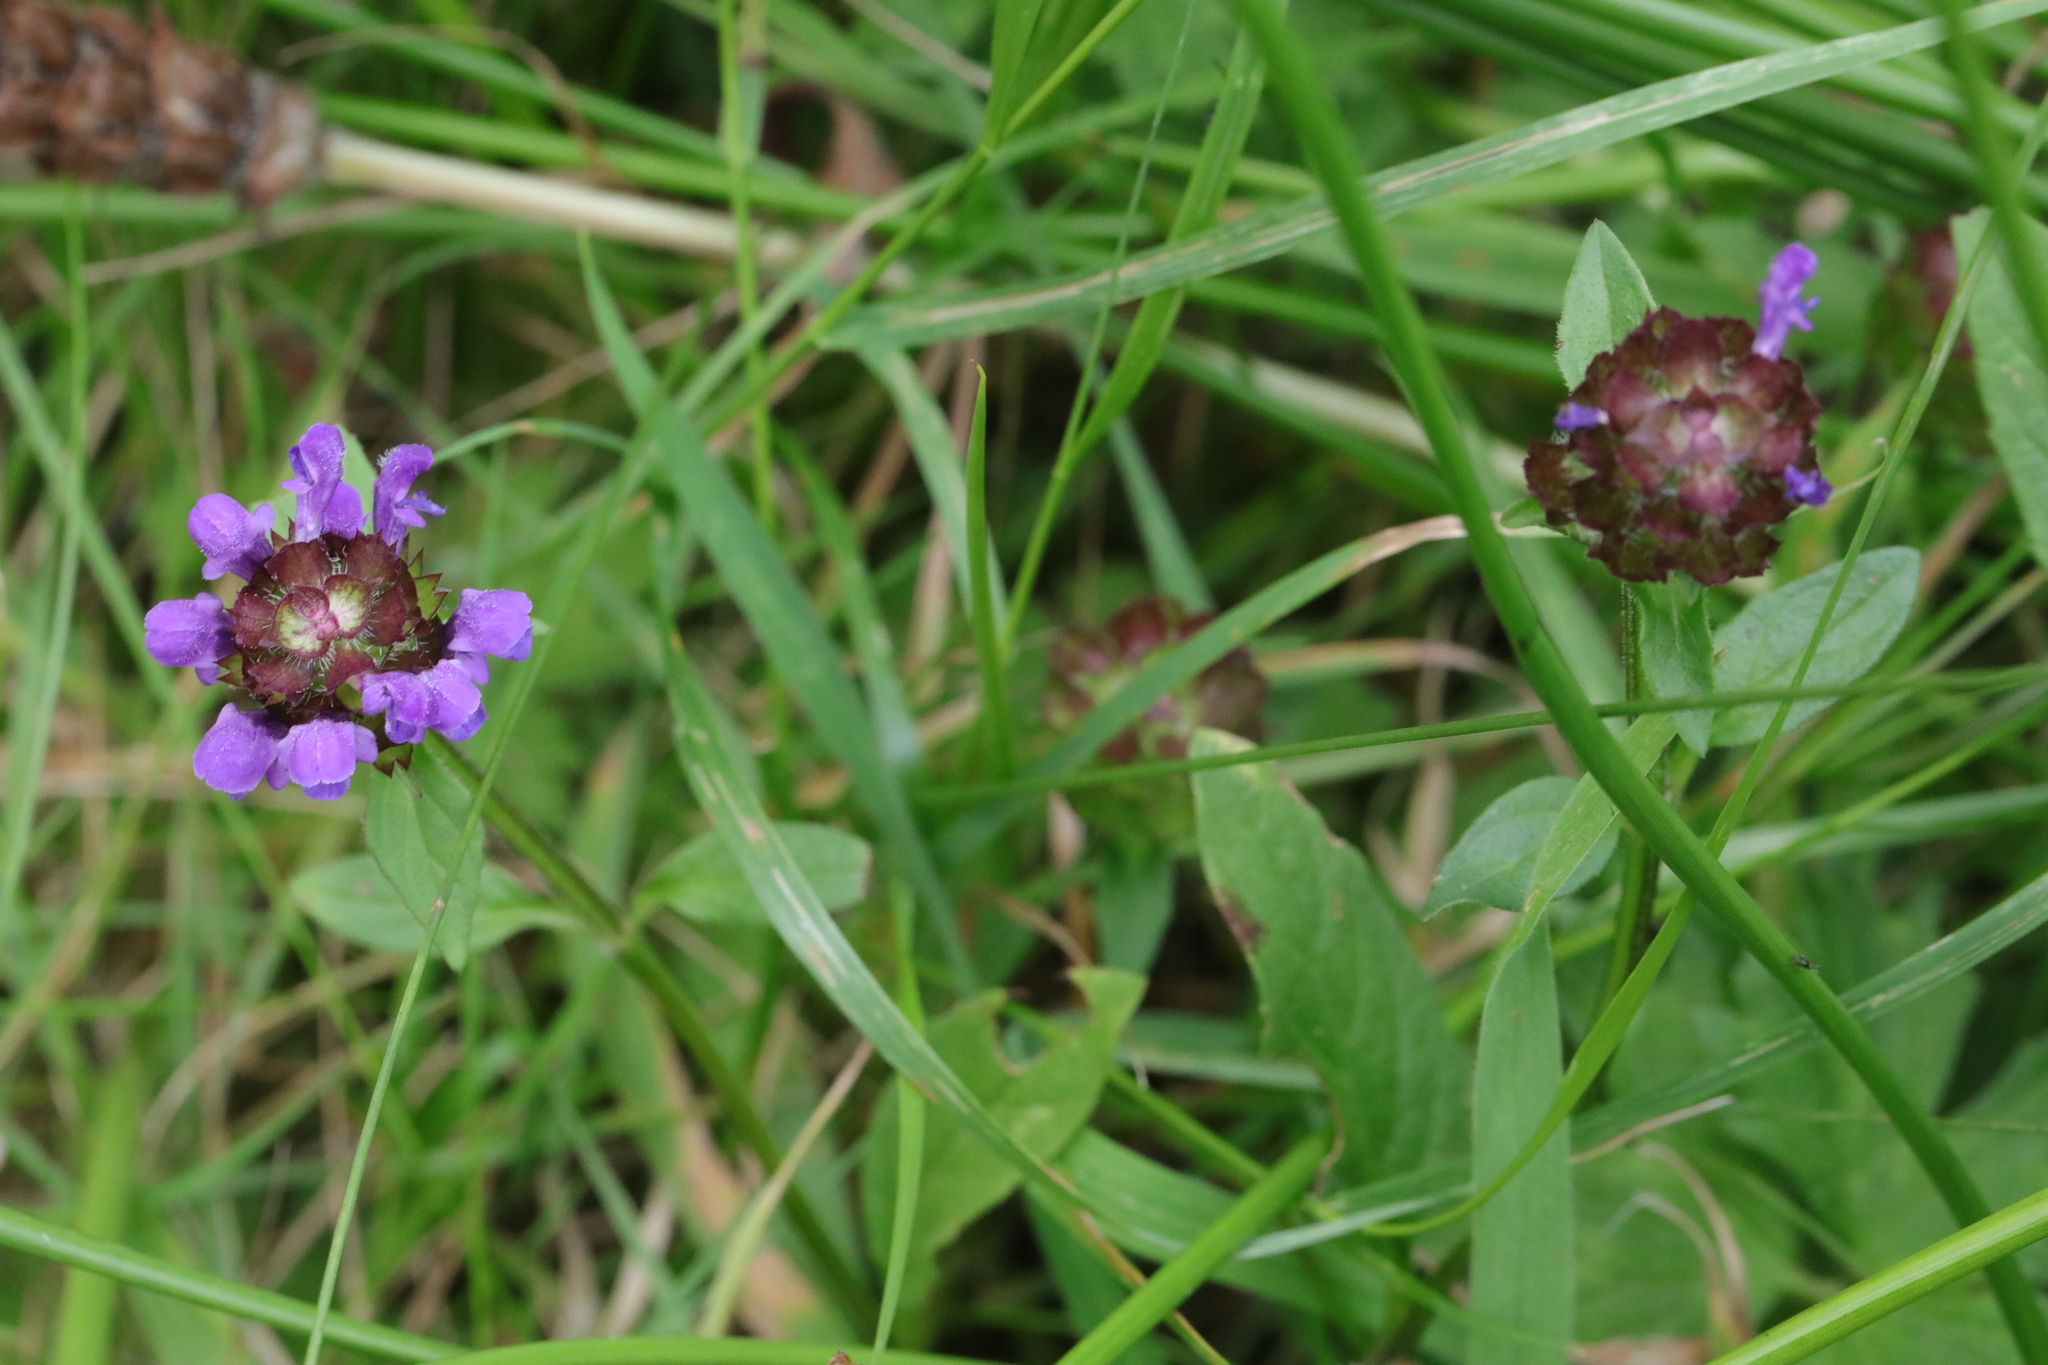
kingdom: Plantae
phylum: Tracheophyta
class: Magnoliopsida
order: Lamiales
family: Lamiaceae
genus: Prunella
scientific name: Prunella vulgaris
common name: Heal-all
